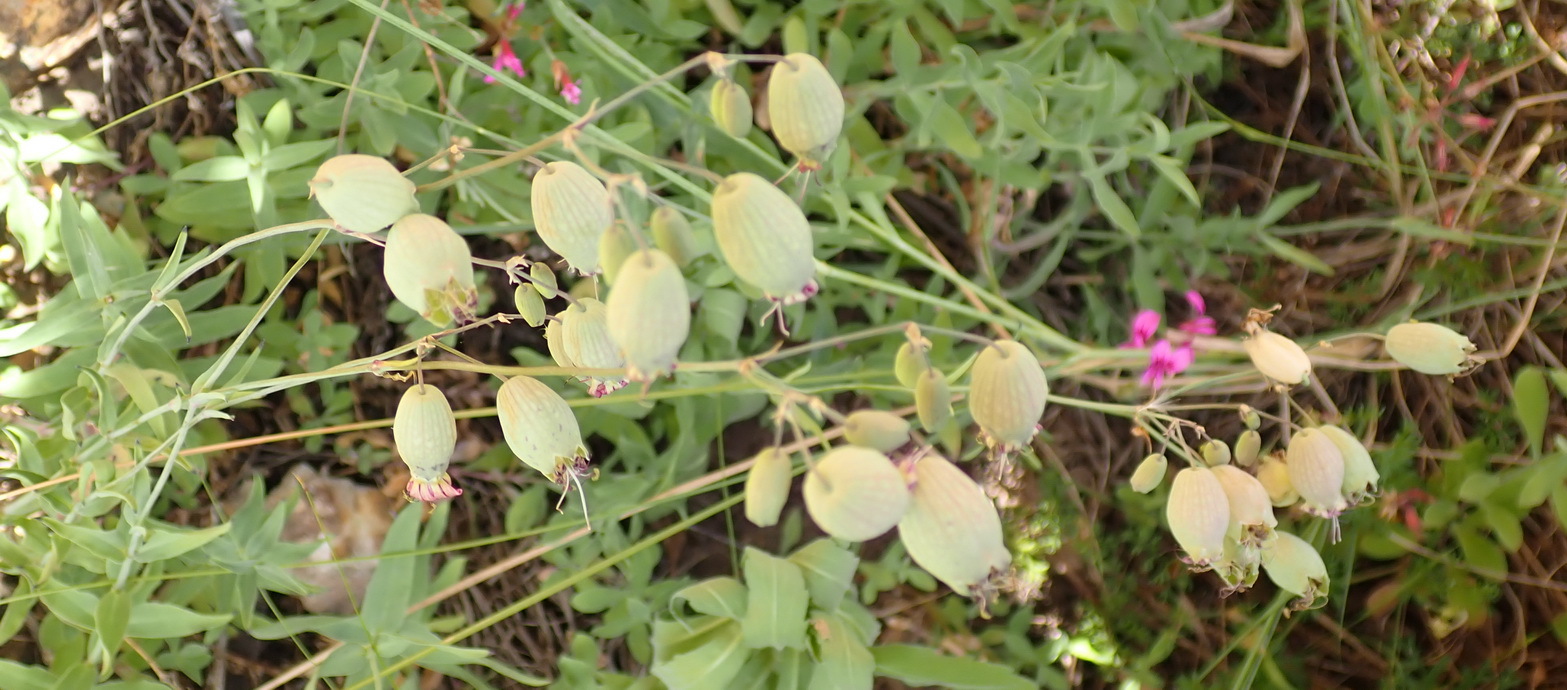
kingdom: Plantae
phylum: Tracheophyta
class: Magnoliopsida
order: Caryophyllales
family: Caryophyllaceae
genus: Silene
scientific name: Silene vulgaris
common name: Bladder campion
